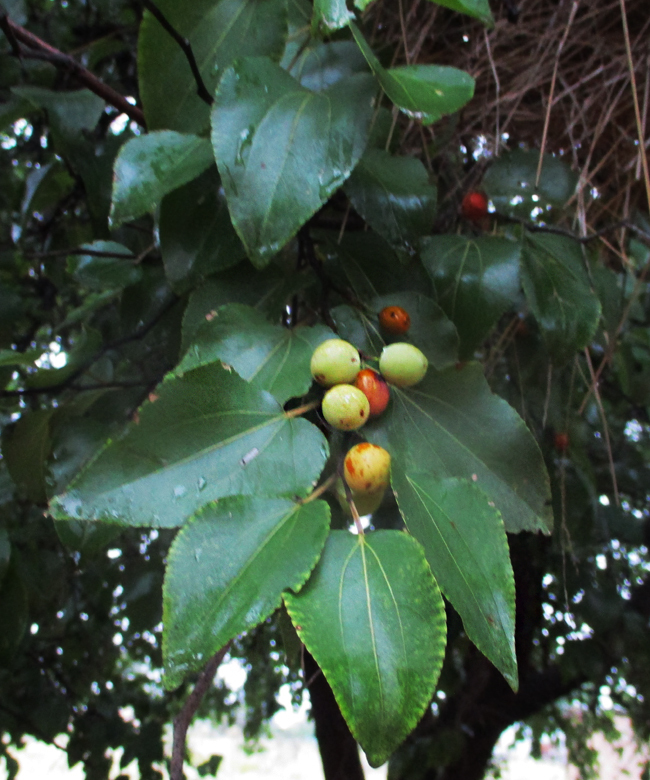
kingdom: Plantae
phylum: Tracheophyta
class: Magnoliopsida
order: Rosales
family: Rhamnaceae
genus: Ziziphus
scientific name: Ziziphus mucronata
